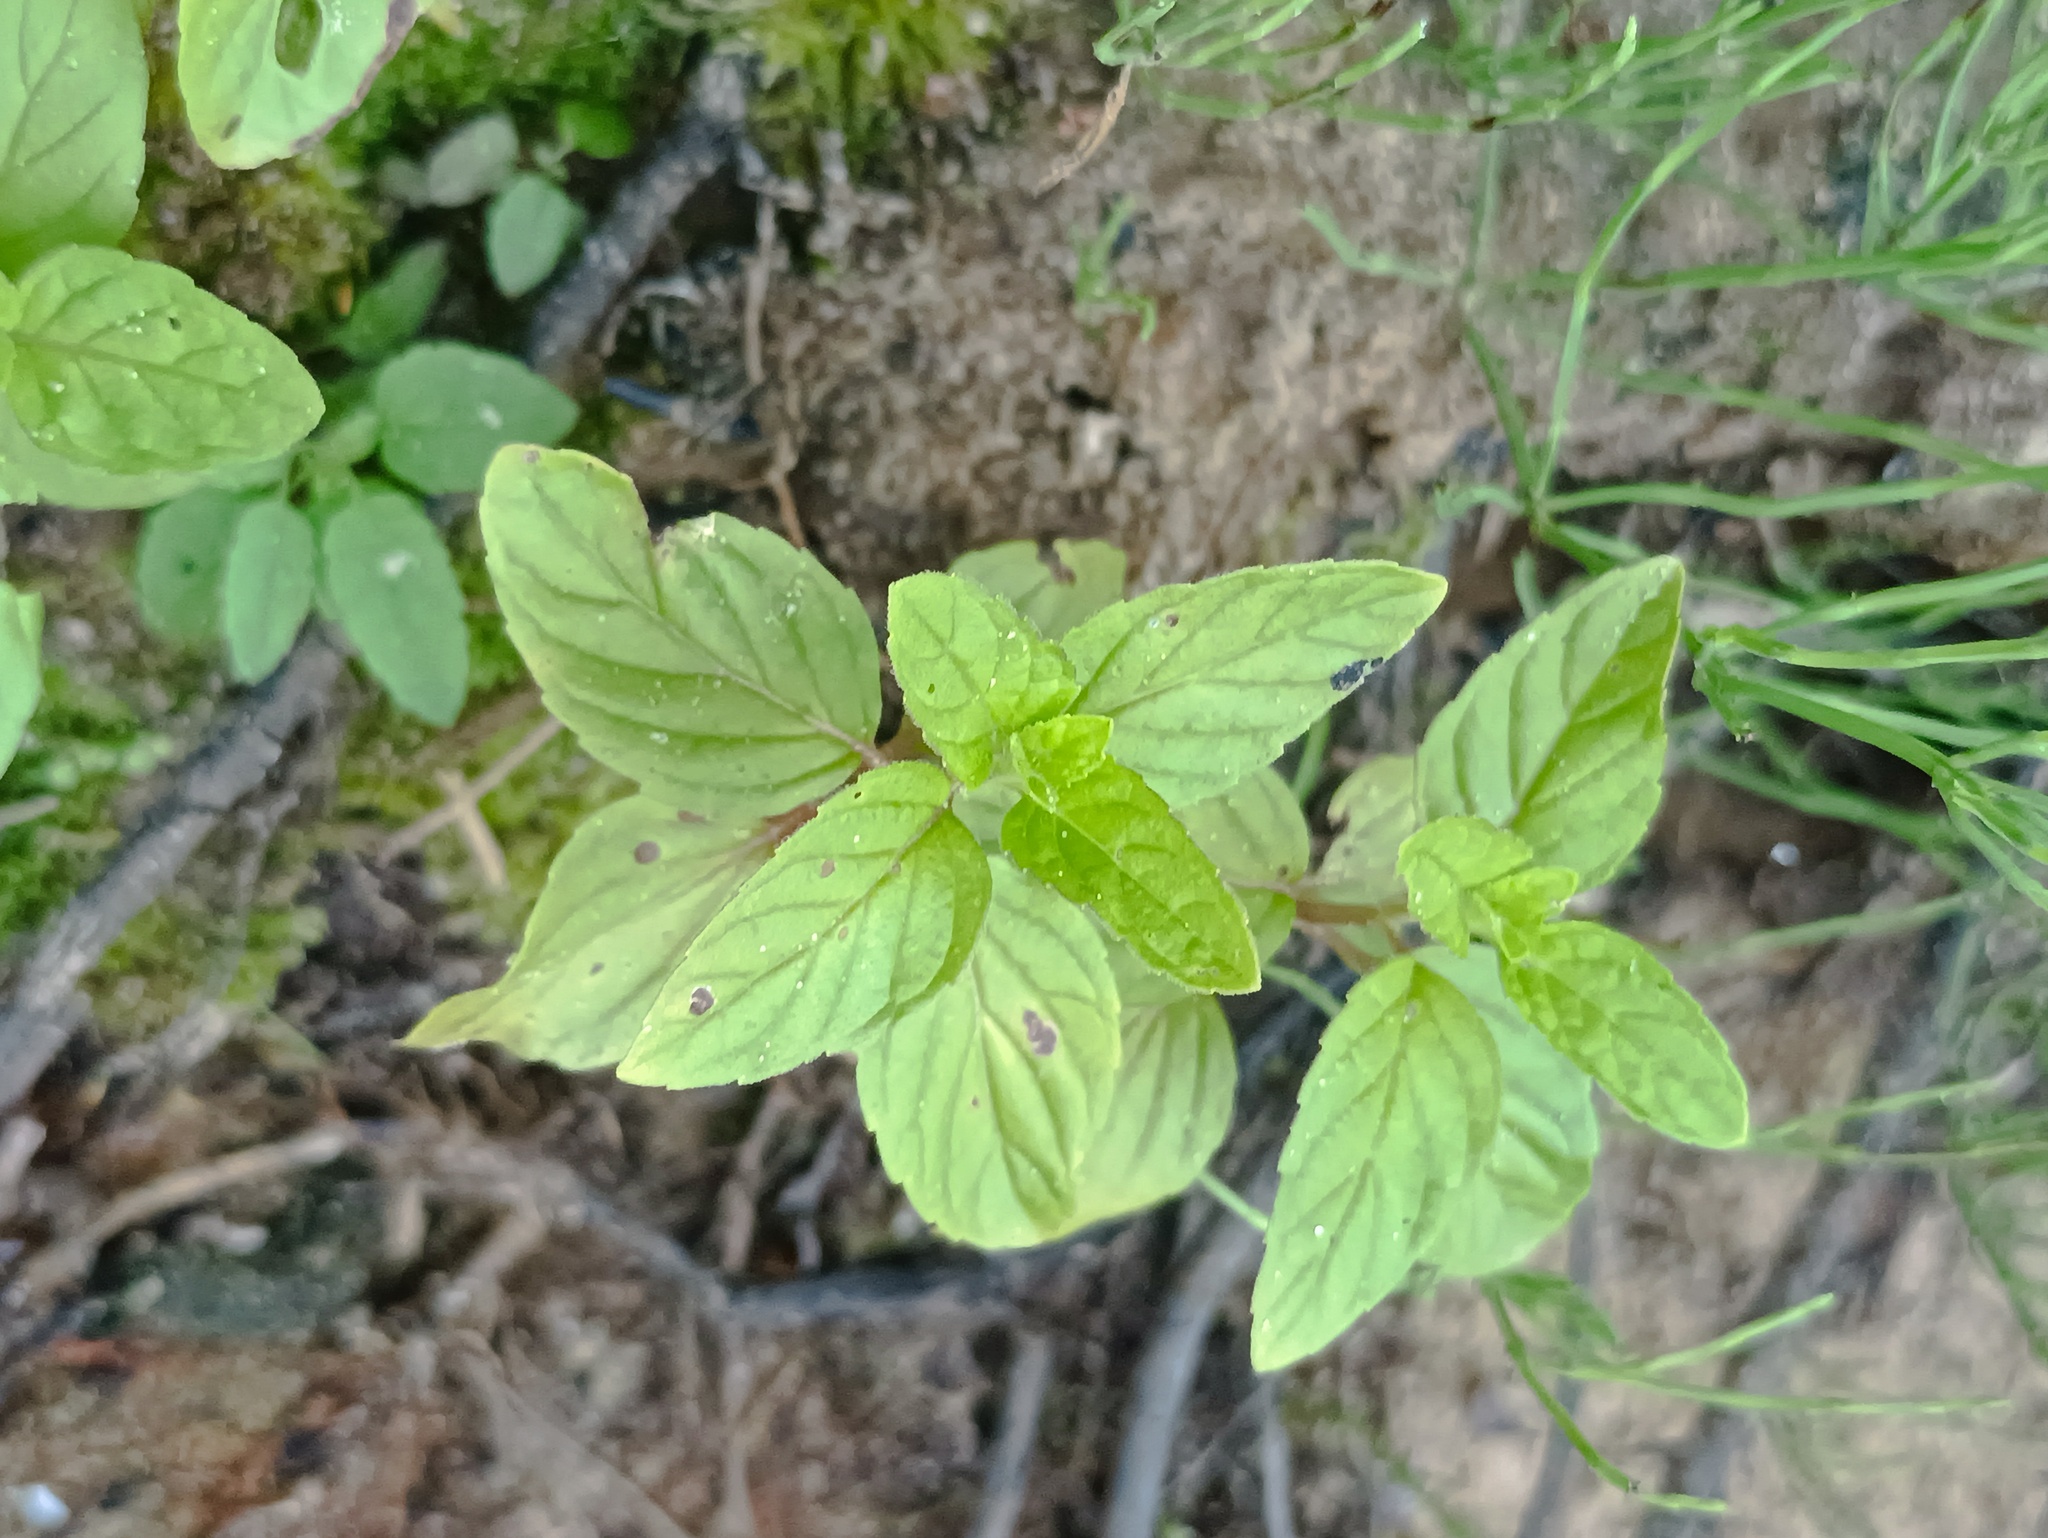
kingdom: Plantae
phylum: Tracheophyta
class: Magnoliopsida
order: Lamiales
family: Lamiaceae
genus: Mentha
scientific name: Mentha arvensis
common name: Corn mint
